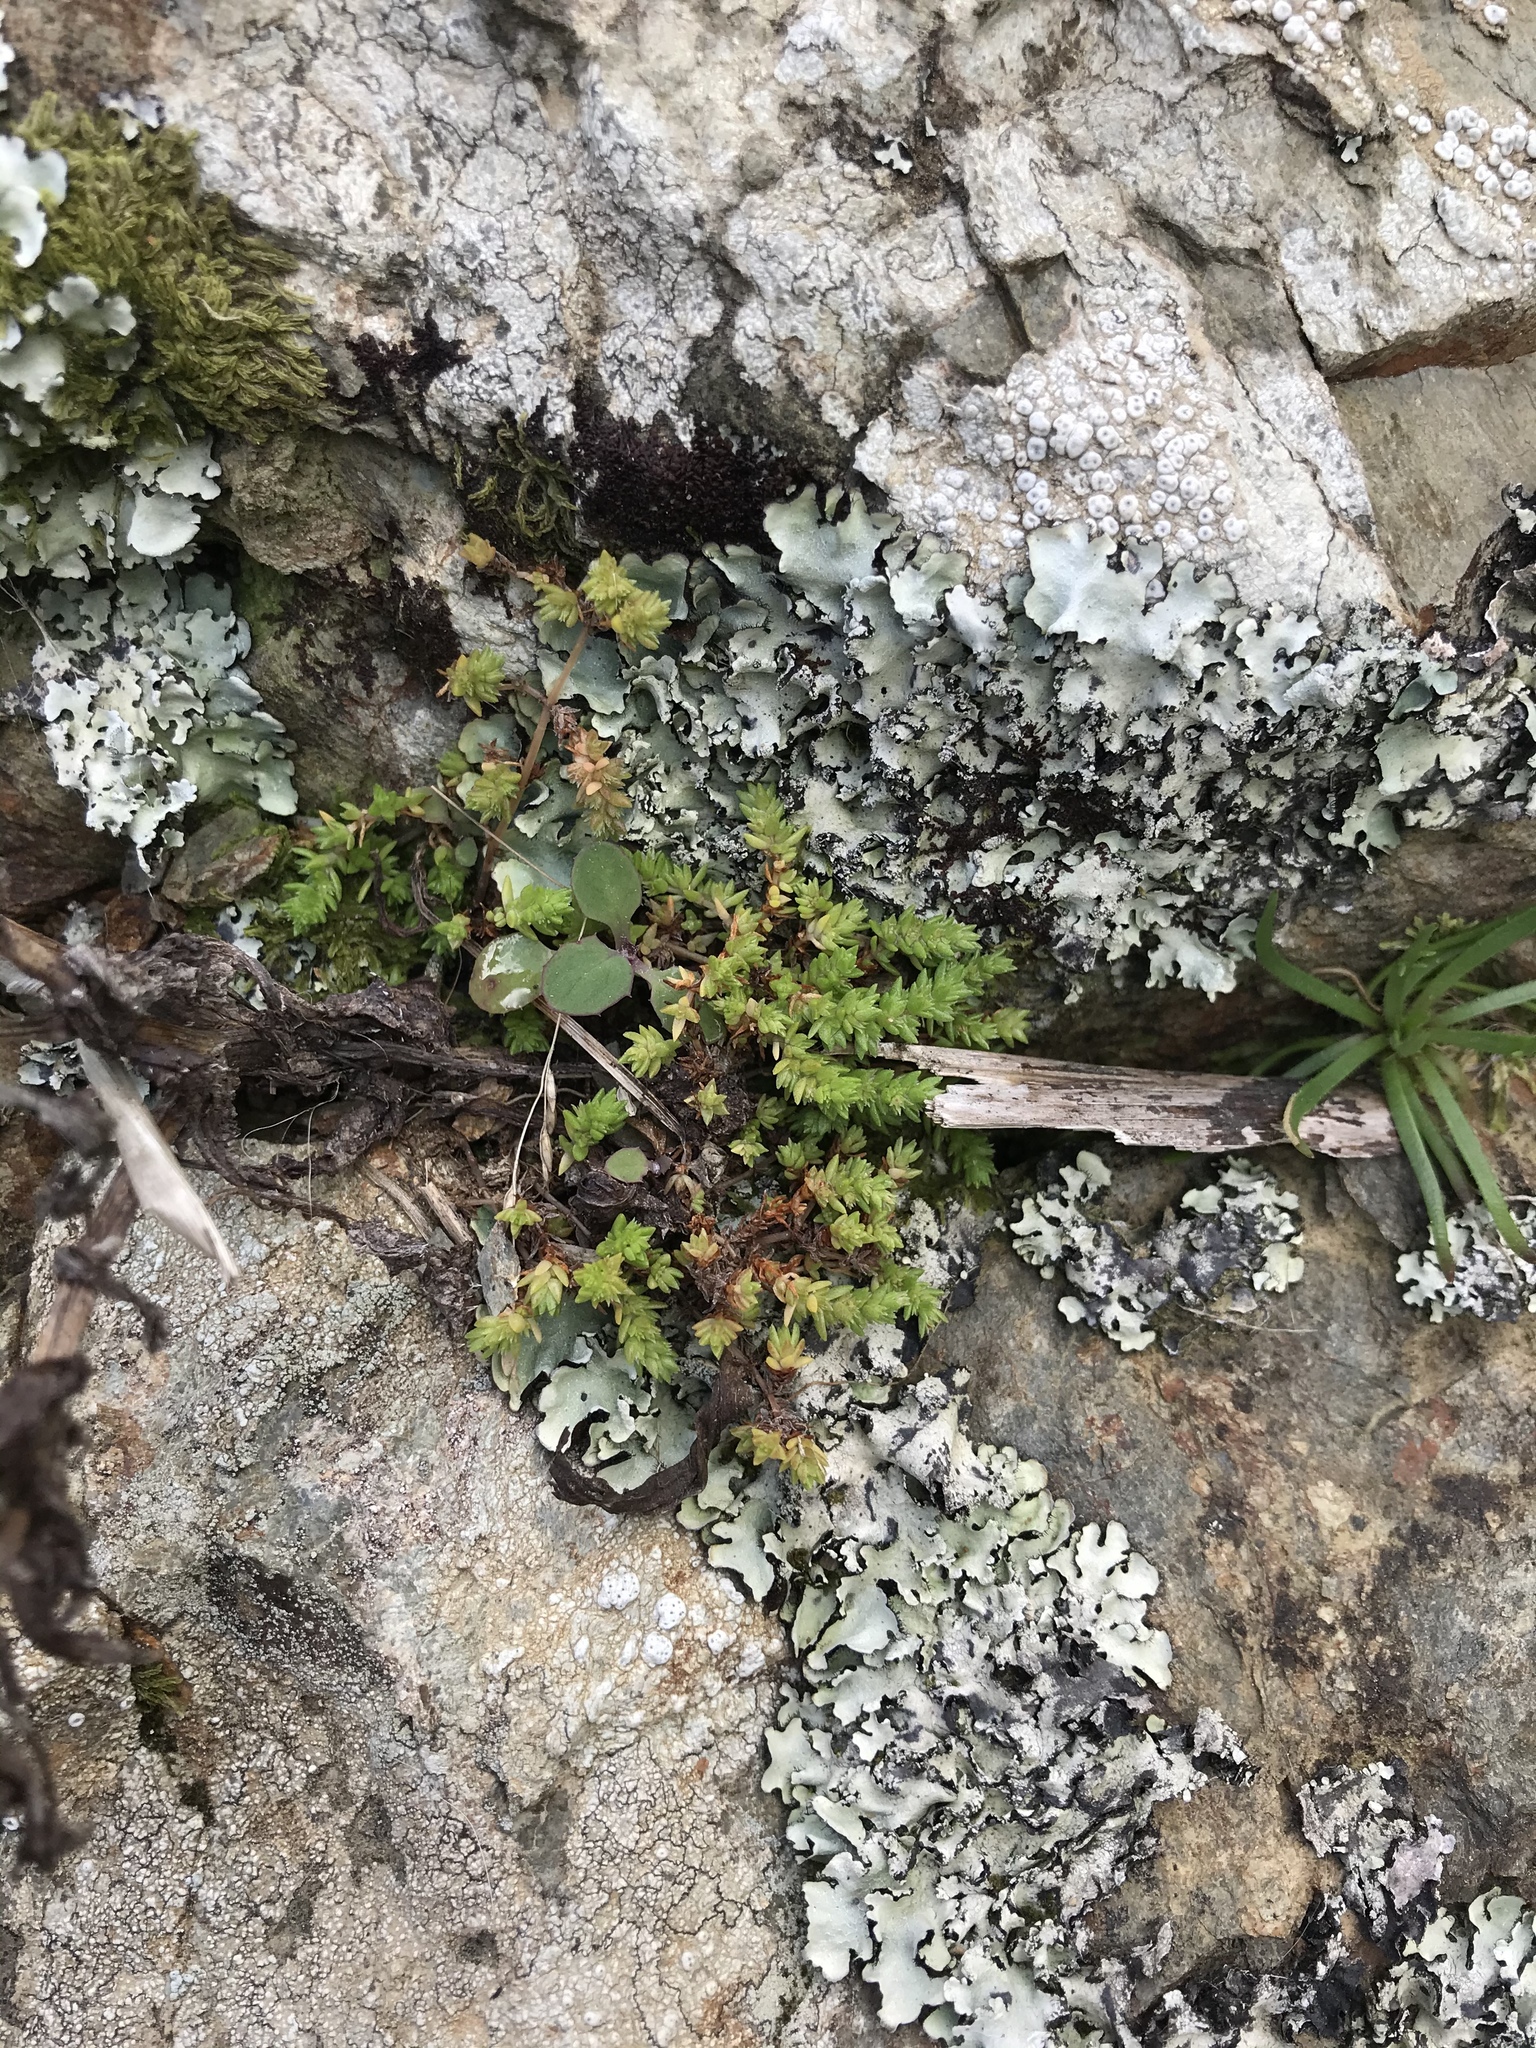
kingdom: Plantae
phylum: Tracheophyta
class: Magnoliopsida
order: Saxifragales
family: Crassulaceae
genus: Crassula
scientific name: Crassula moschata
